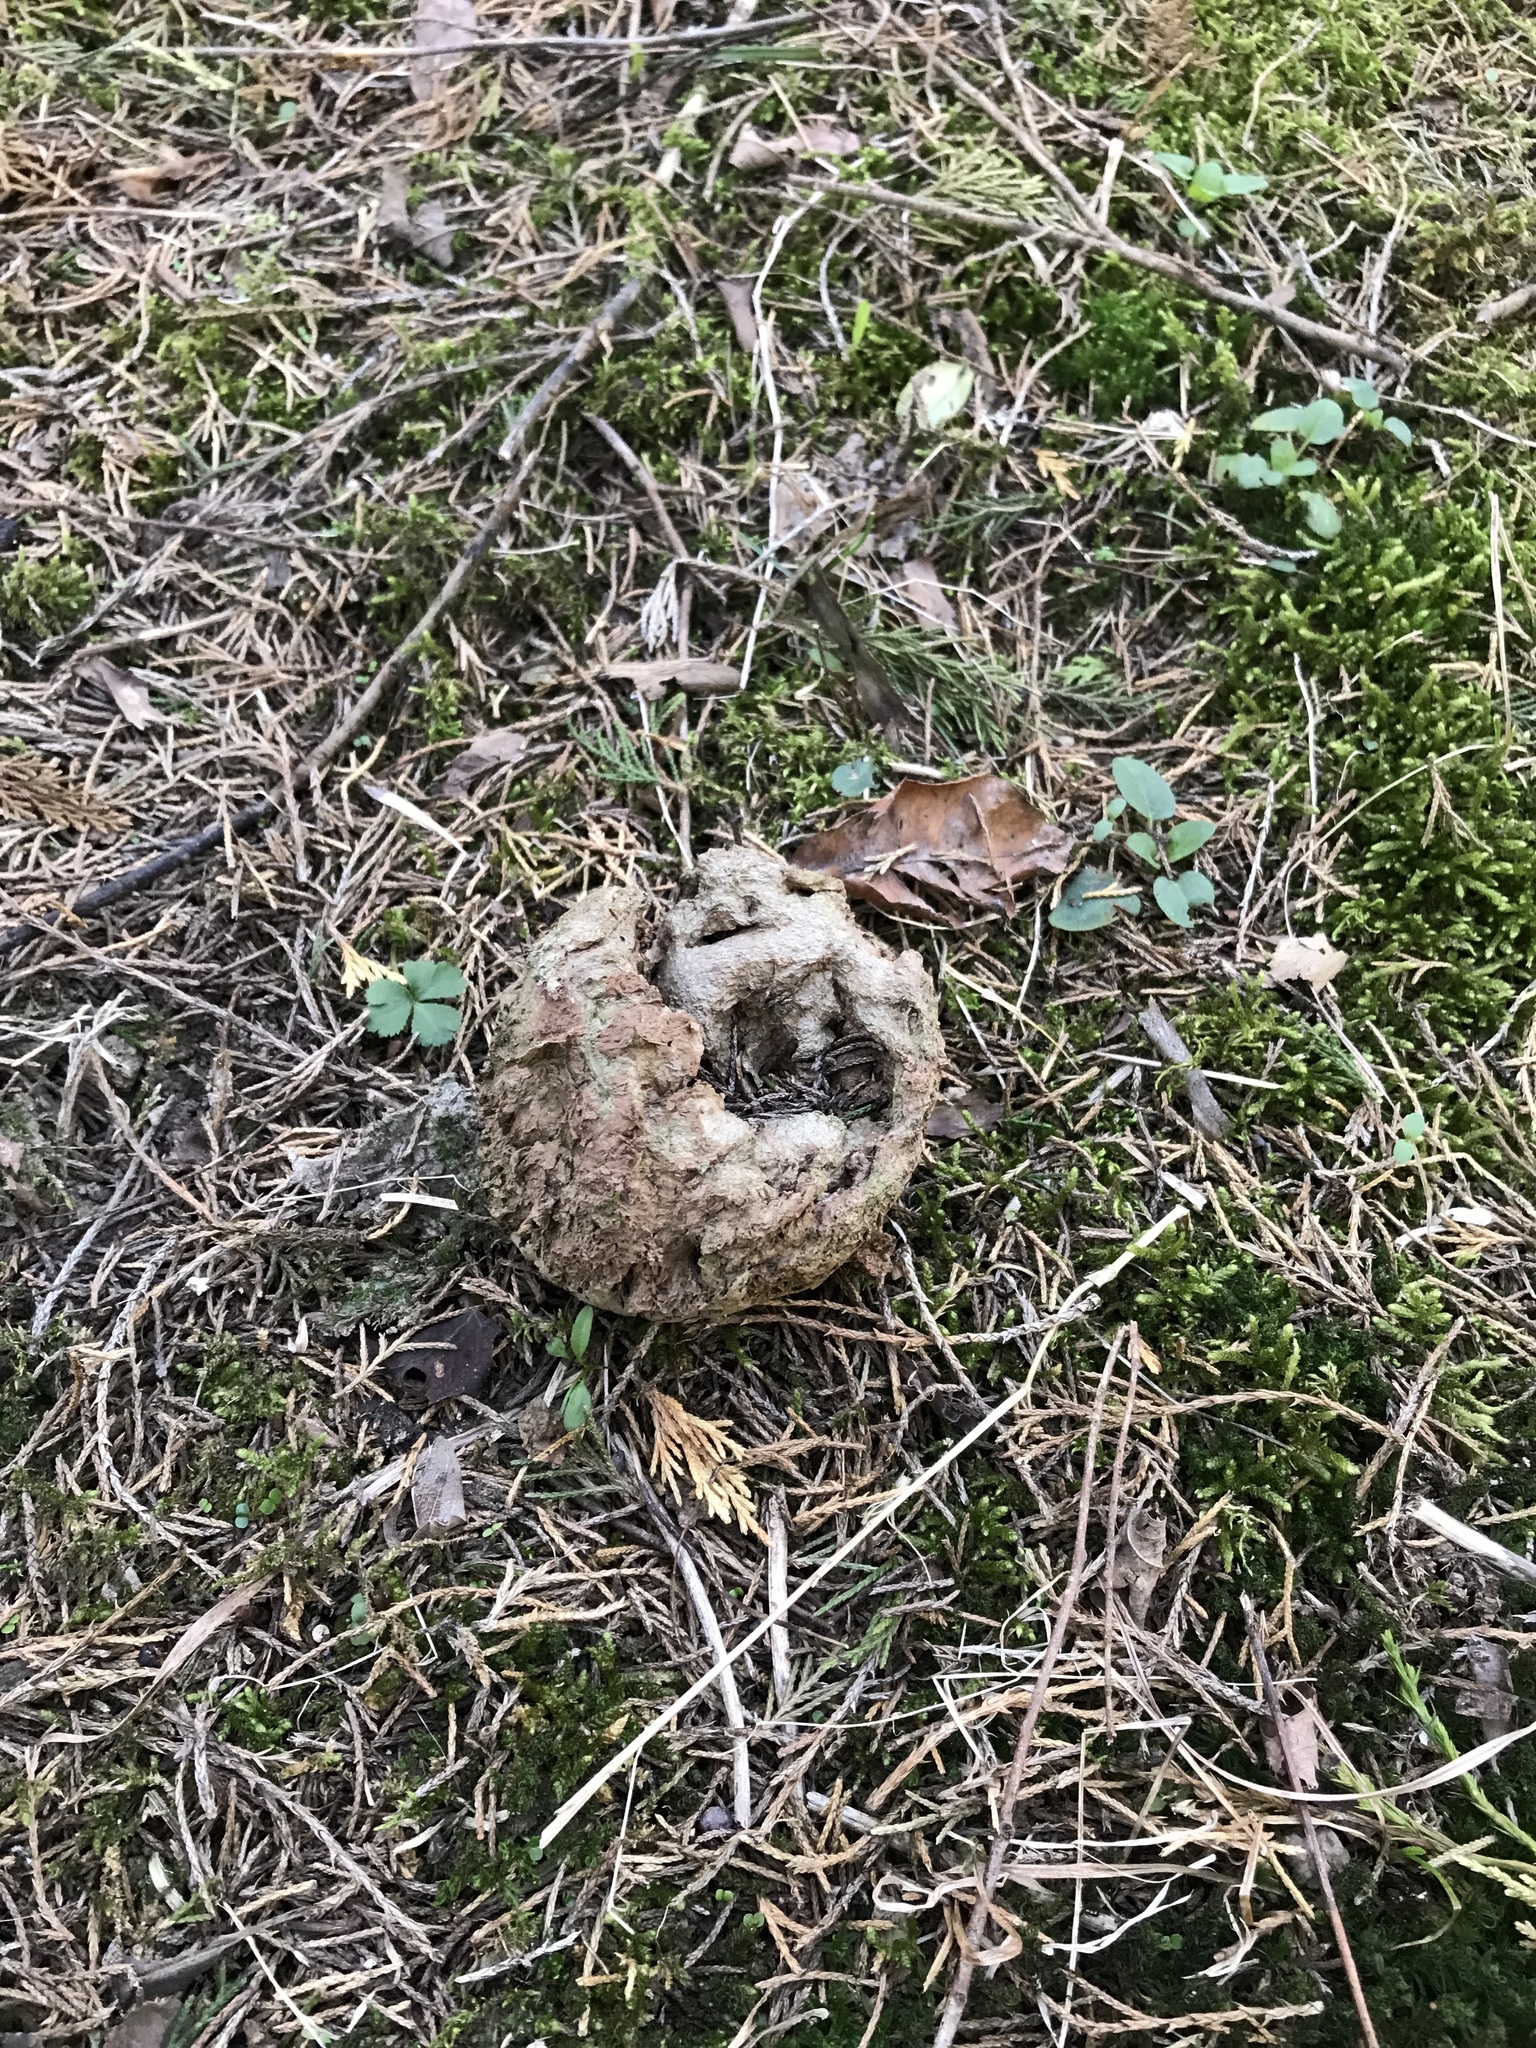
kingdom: Fungi
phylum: Basidiomycota
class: Agaricomycetes
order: Agaricales
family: Lycoperdaceae
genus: Calvatia
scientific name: Calvatia gigantea
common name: Giant puffball
